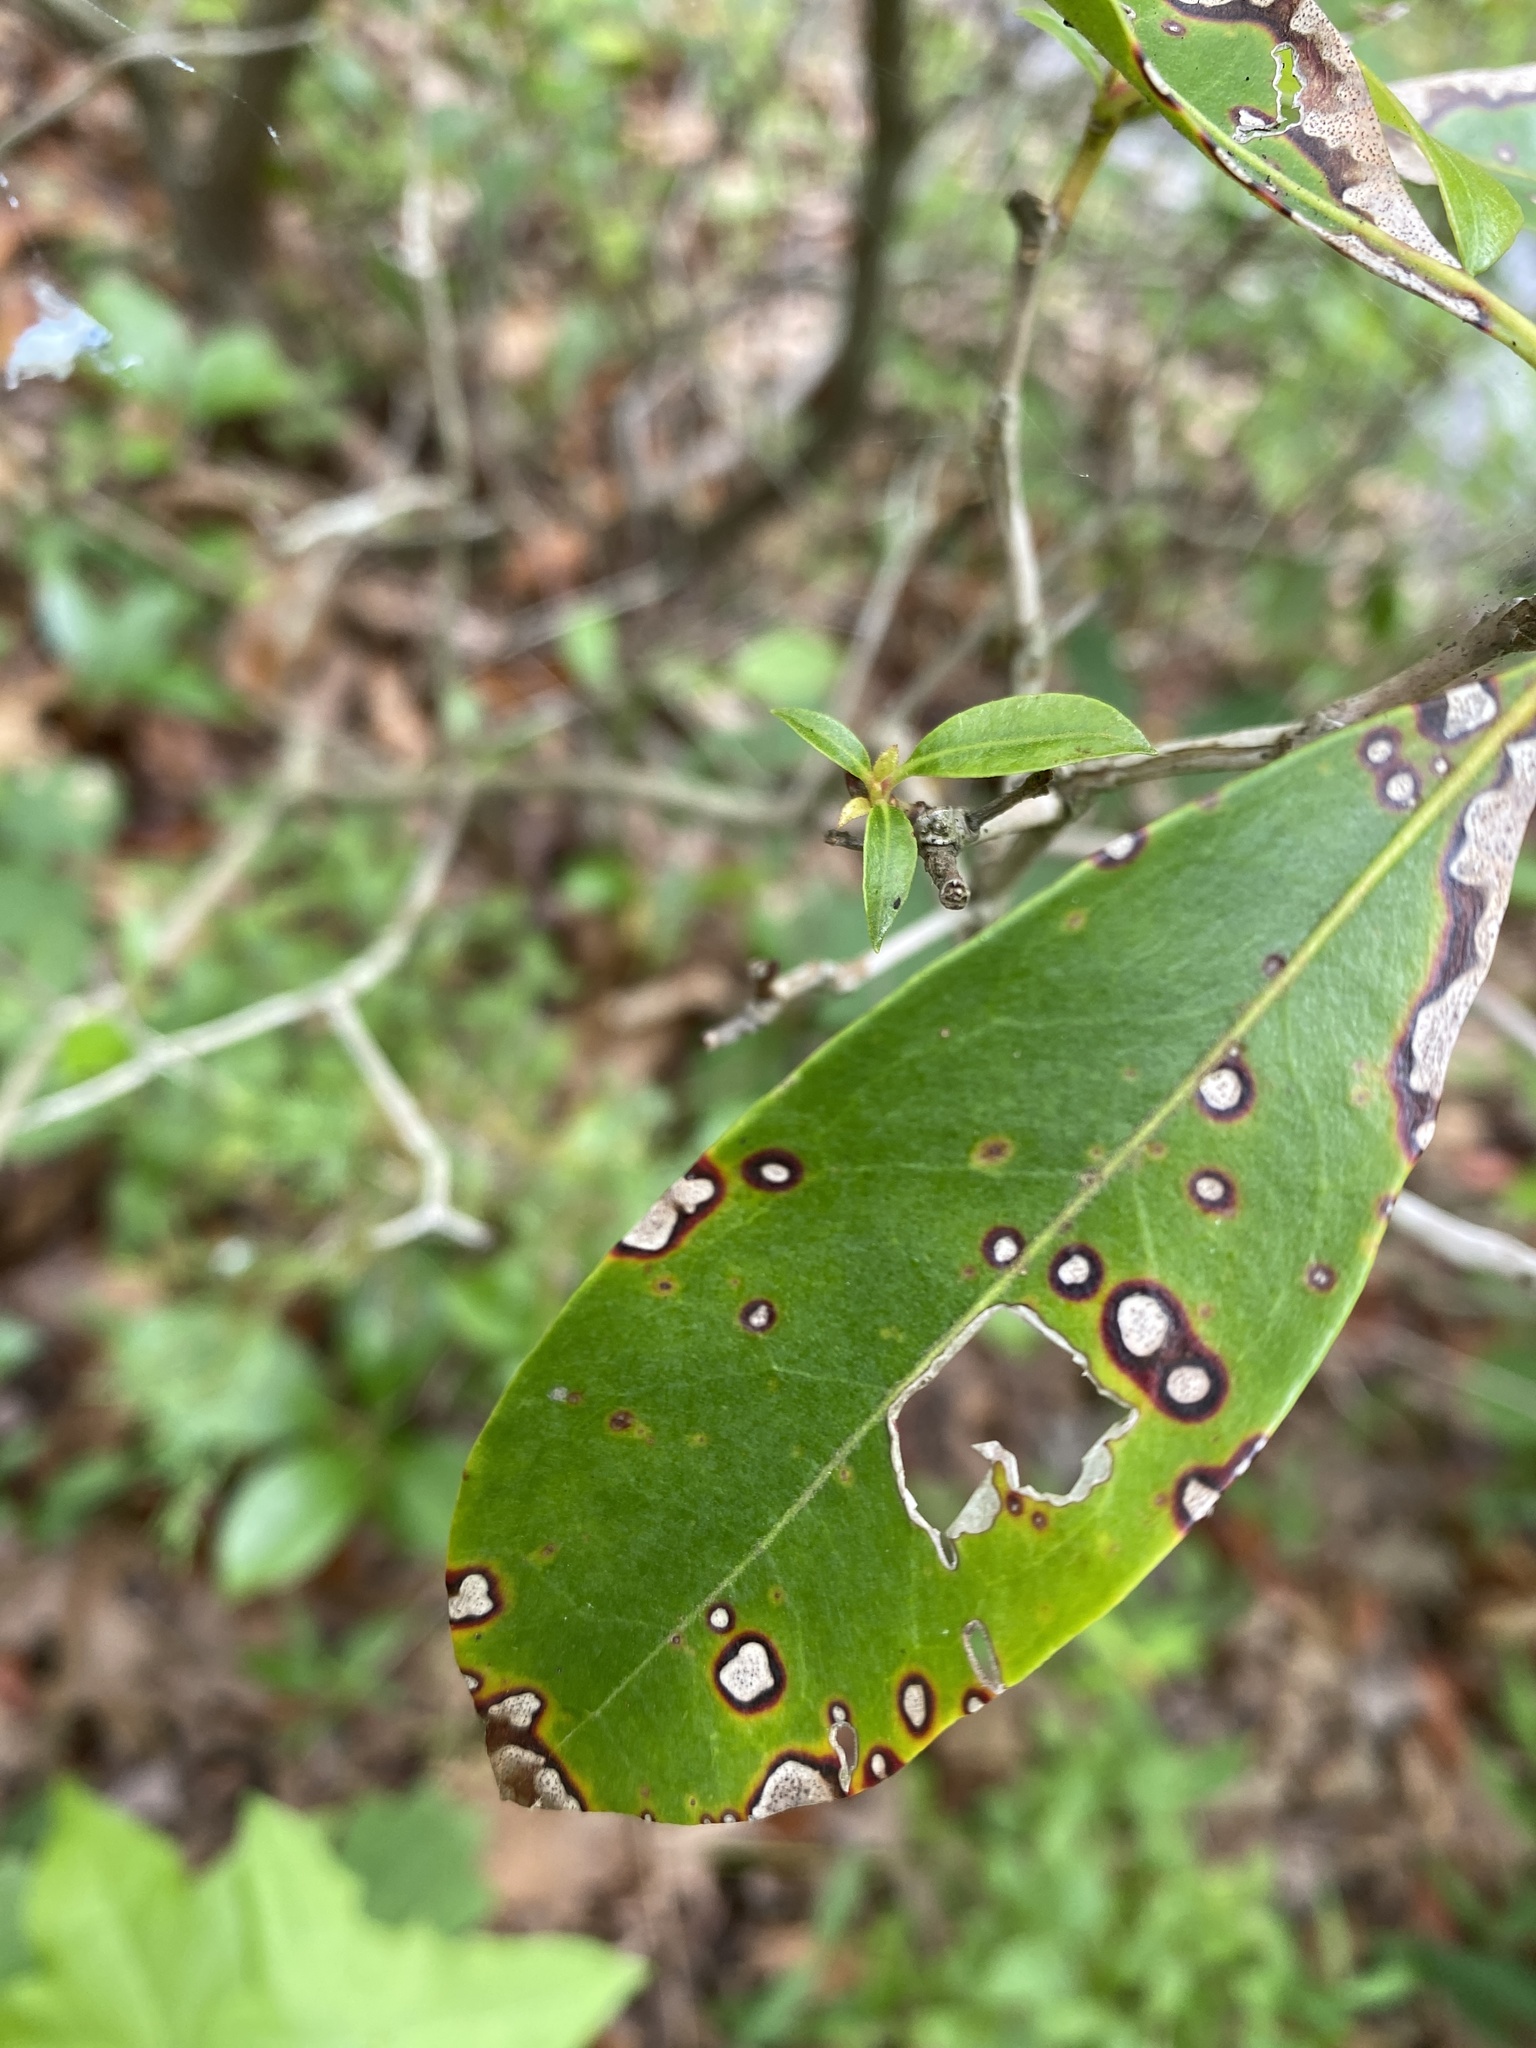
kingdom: Fungi
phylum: Ascomycota
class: Dothideomycetes
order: Mycosphaerellales
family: Mycosphaerellaceae
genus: Mycosphaerella
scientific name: Mycosphaerella colorata
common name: Mountain laurel leaf spot
